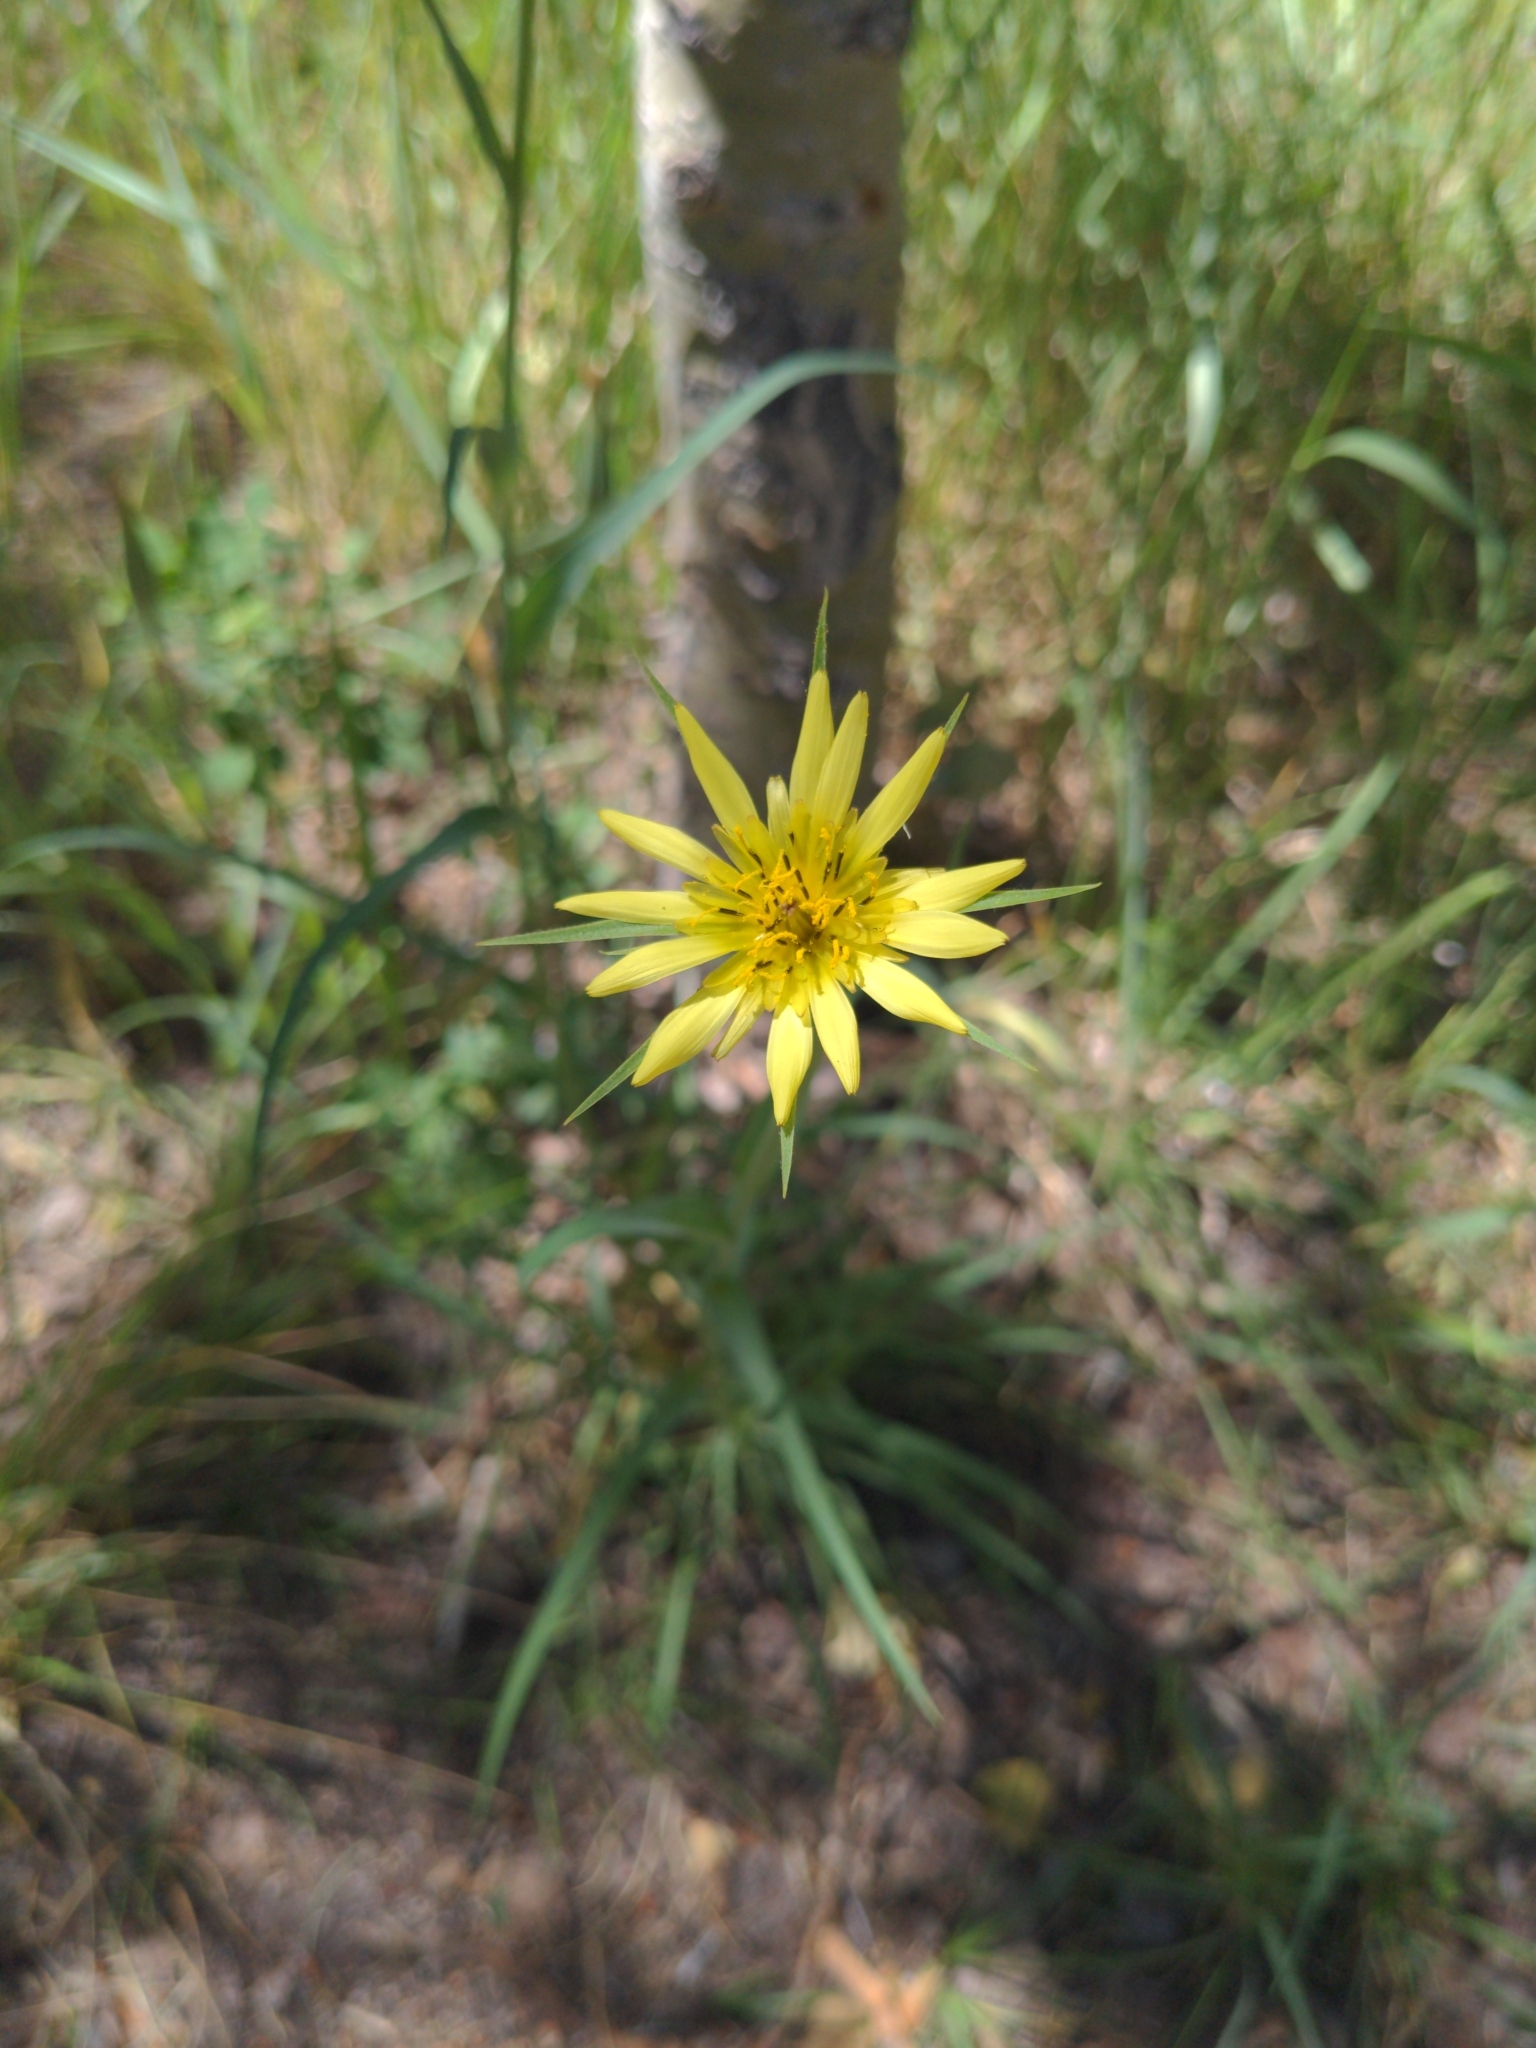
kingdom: Plantae
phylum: Tracheophyta
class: Magnoliopsida
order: Asterales
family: Asteraceae
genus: Tragopogon
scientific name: Tragopogon dubius
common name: Yellow salsify
